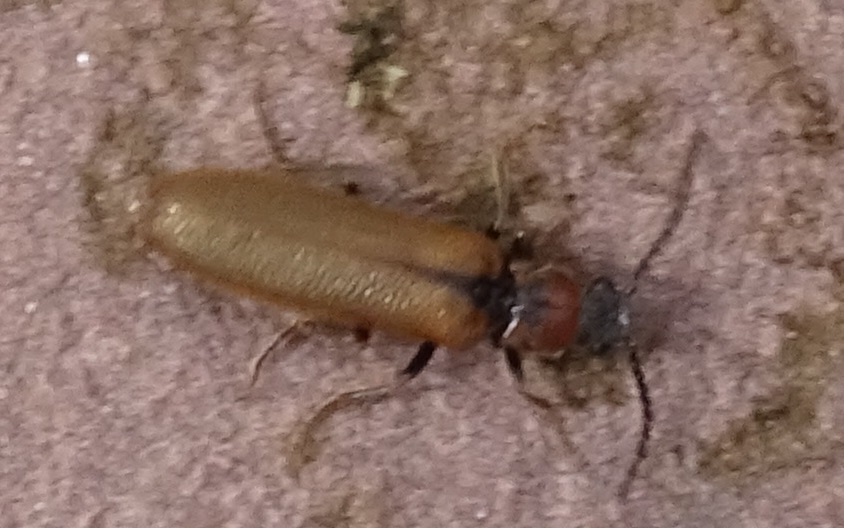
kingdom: Animalia
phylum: Arthropoda
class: Insecta
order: Coleoptera
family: Elateridae
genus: Denticollis
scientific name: Denticollis linearis
